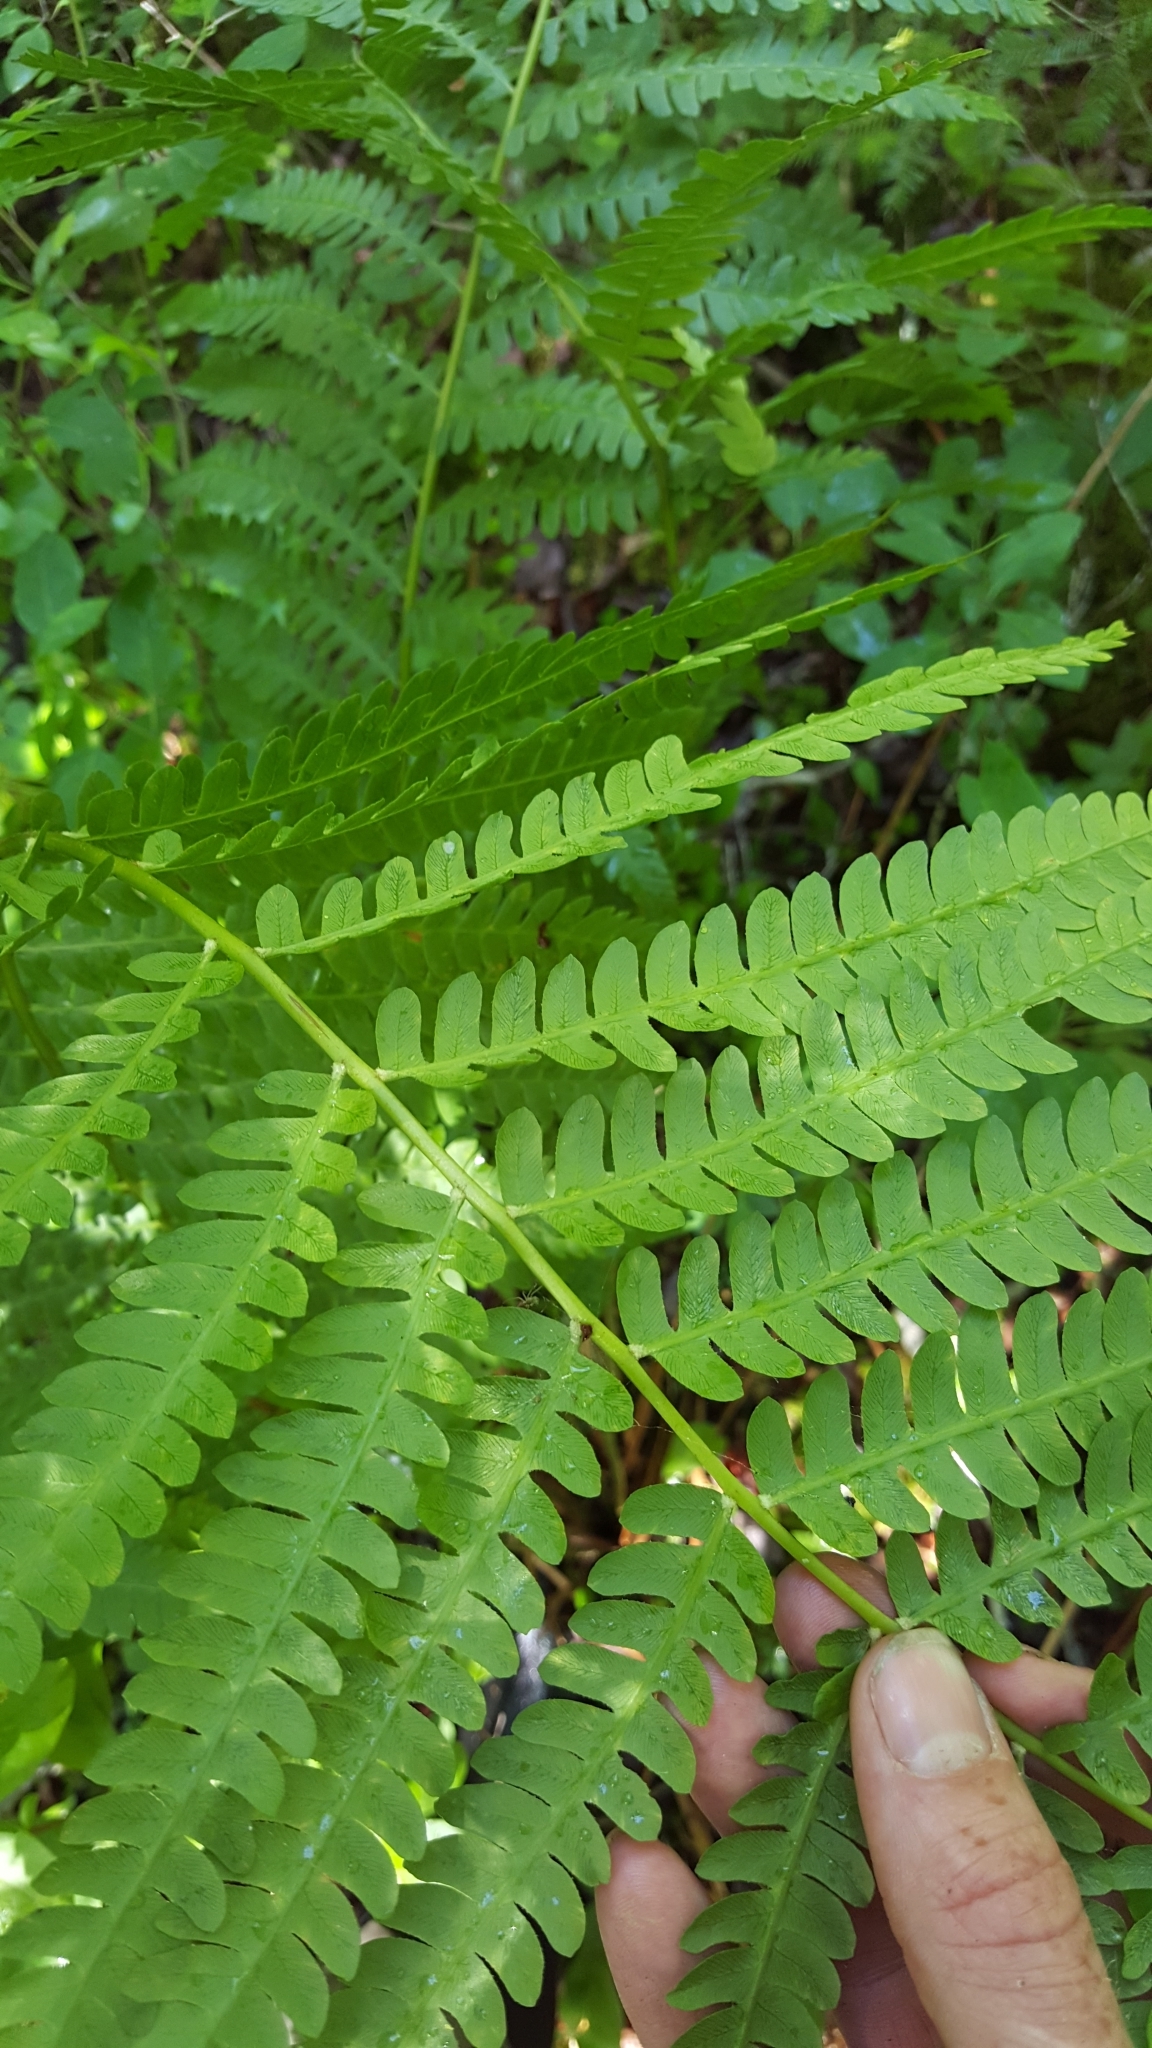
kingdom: Plantae
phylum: Tracheophyta
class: Polypodiopsida
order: Osmundales
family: Osmundaceae
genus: Osmundastrum
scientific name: Osmundastrum cinnamomeum
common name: Cinnamon fern
